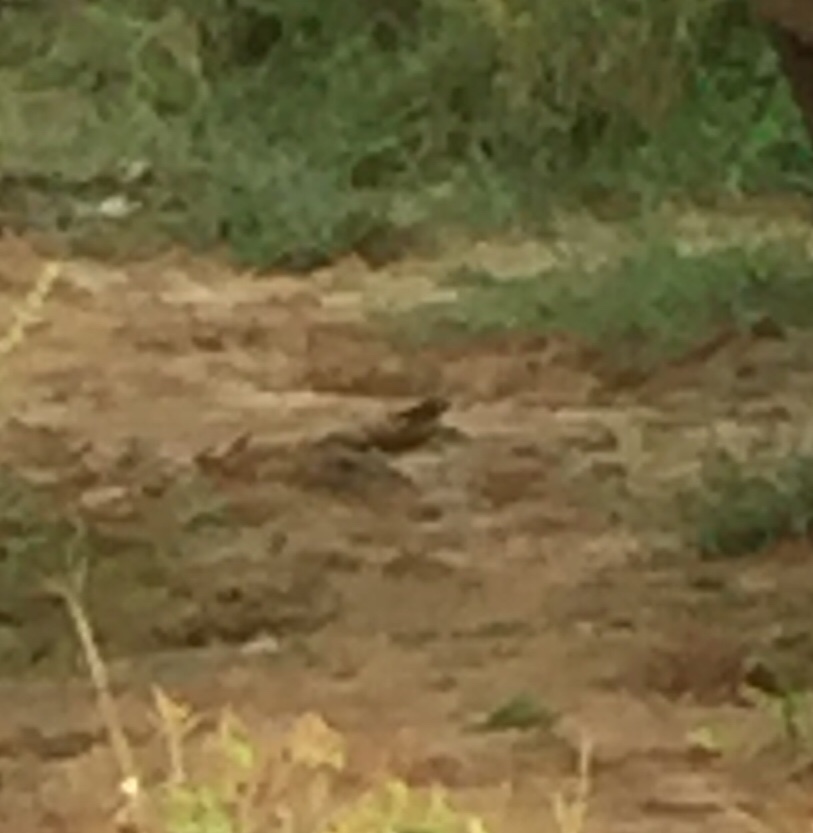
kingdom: Animalia
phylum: Chordata
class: Aves
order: Passeriformes
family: Sturnidae
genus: Acridotheres
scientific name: Acridotheres tristis
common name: Common myna
